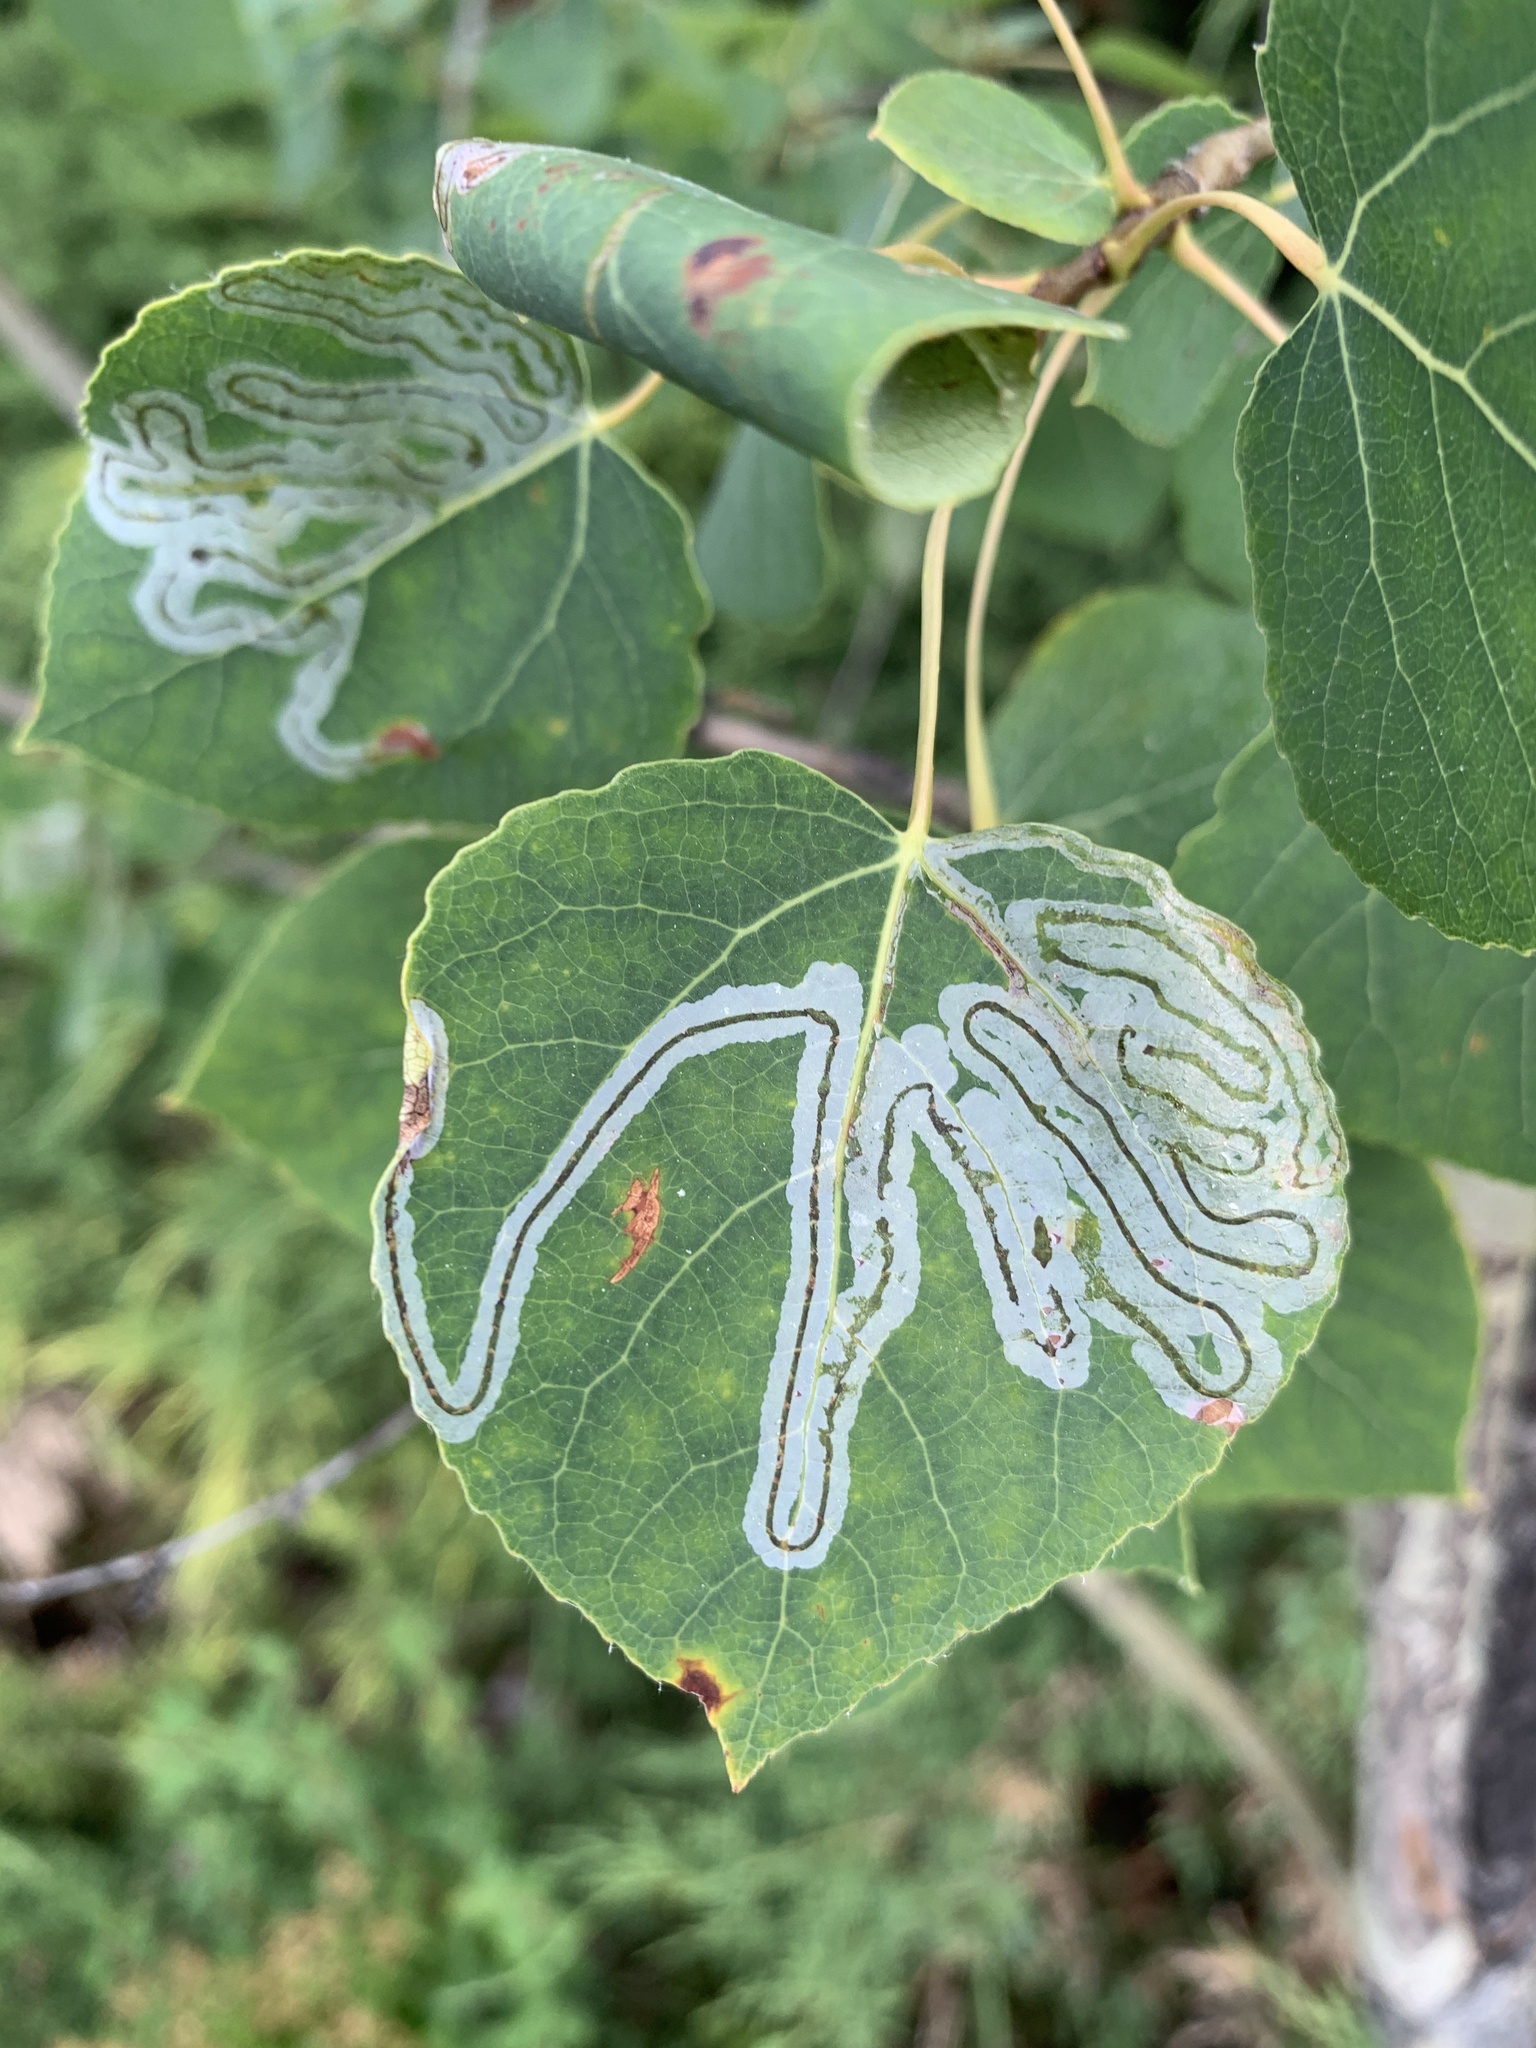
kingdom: Animalia
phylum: Arthropoda
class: Insecta
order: Lepidoptera
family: Gracillariidae
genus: Phyllocnistis
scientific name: Phyllocnistis populiella
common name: Aspen serpentine leafminer moth
